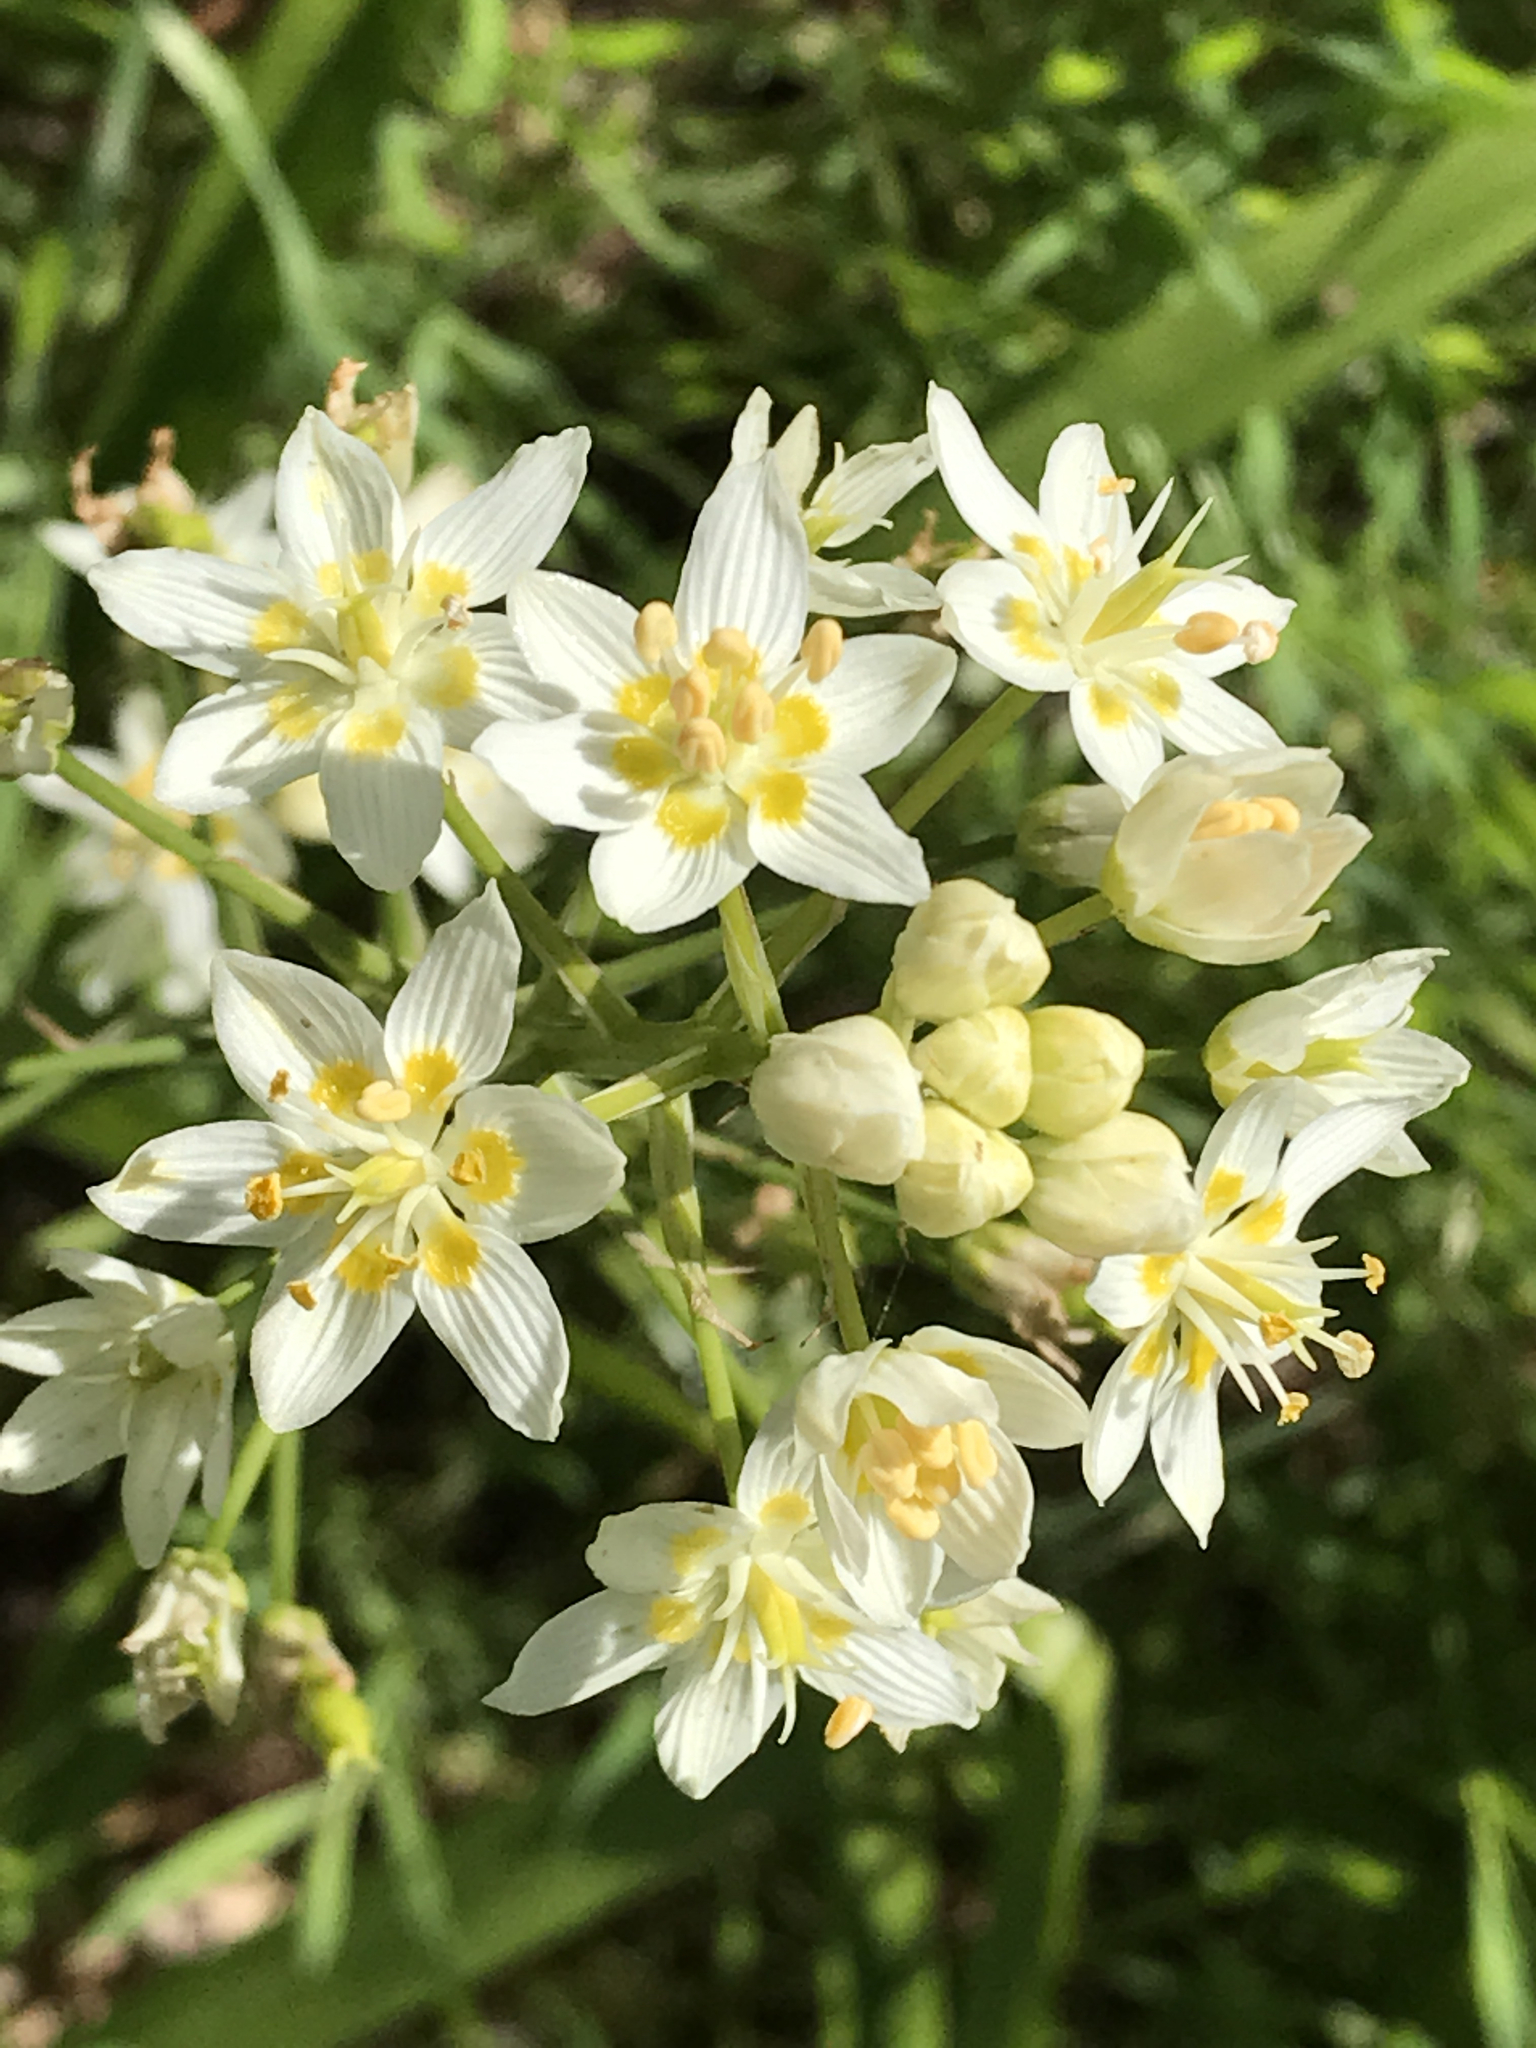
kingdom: Plantae
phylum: Tracheophyta
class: Liliopsida
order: Liliales
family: Melanthiaceae
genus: Toxicoscordion
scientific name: Toxicoscordion fremontii
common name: Fremont's death camas
